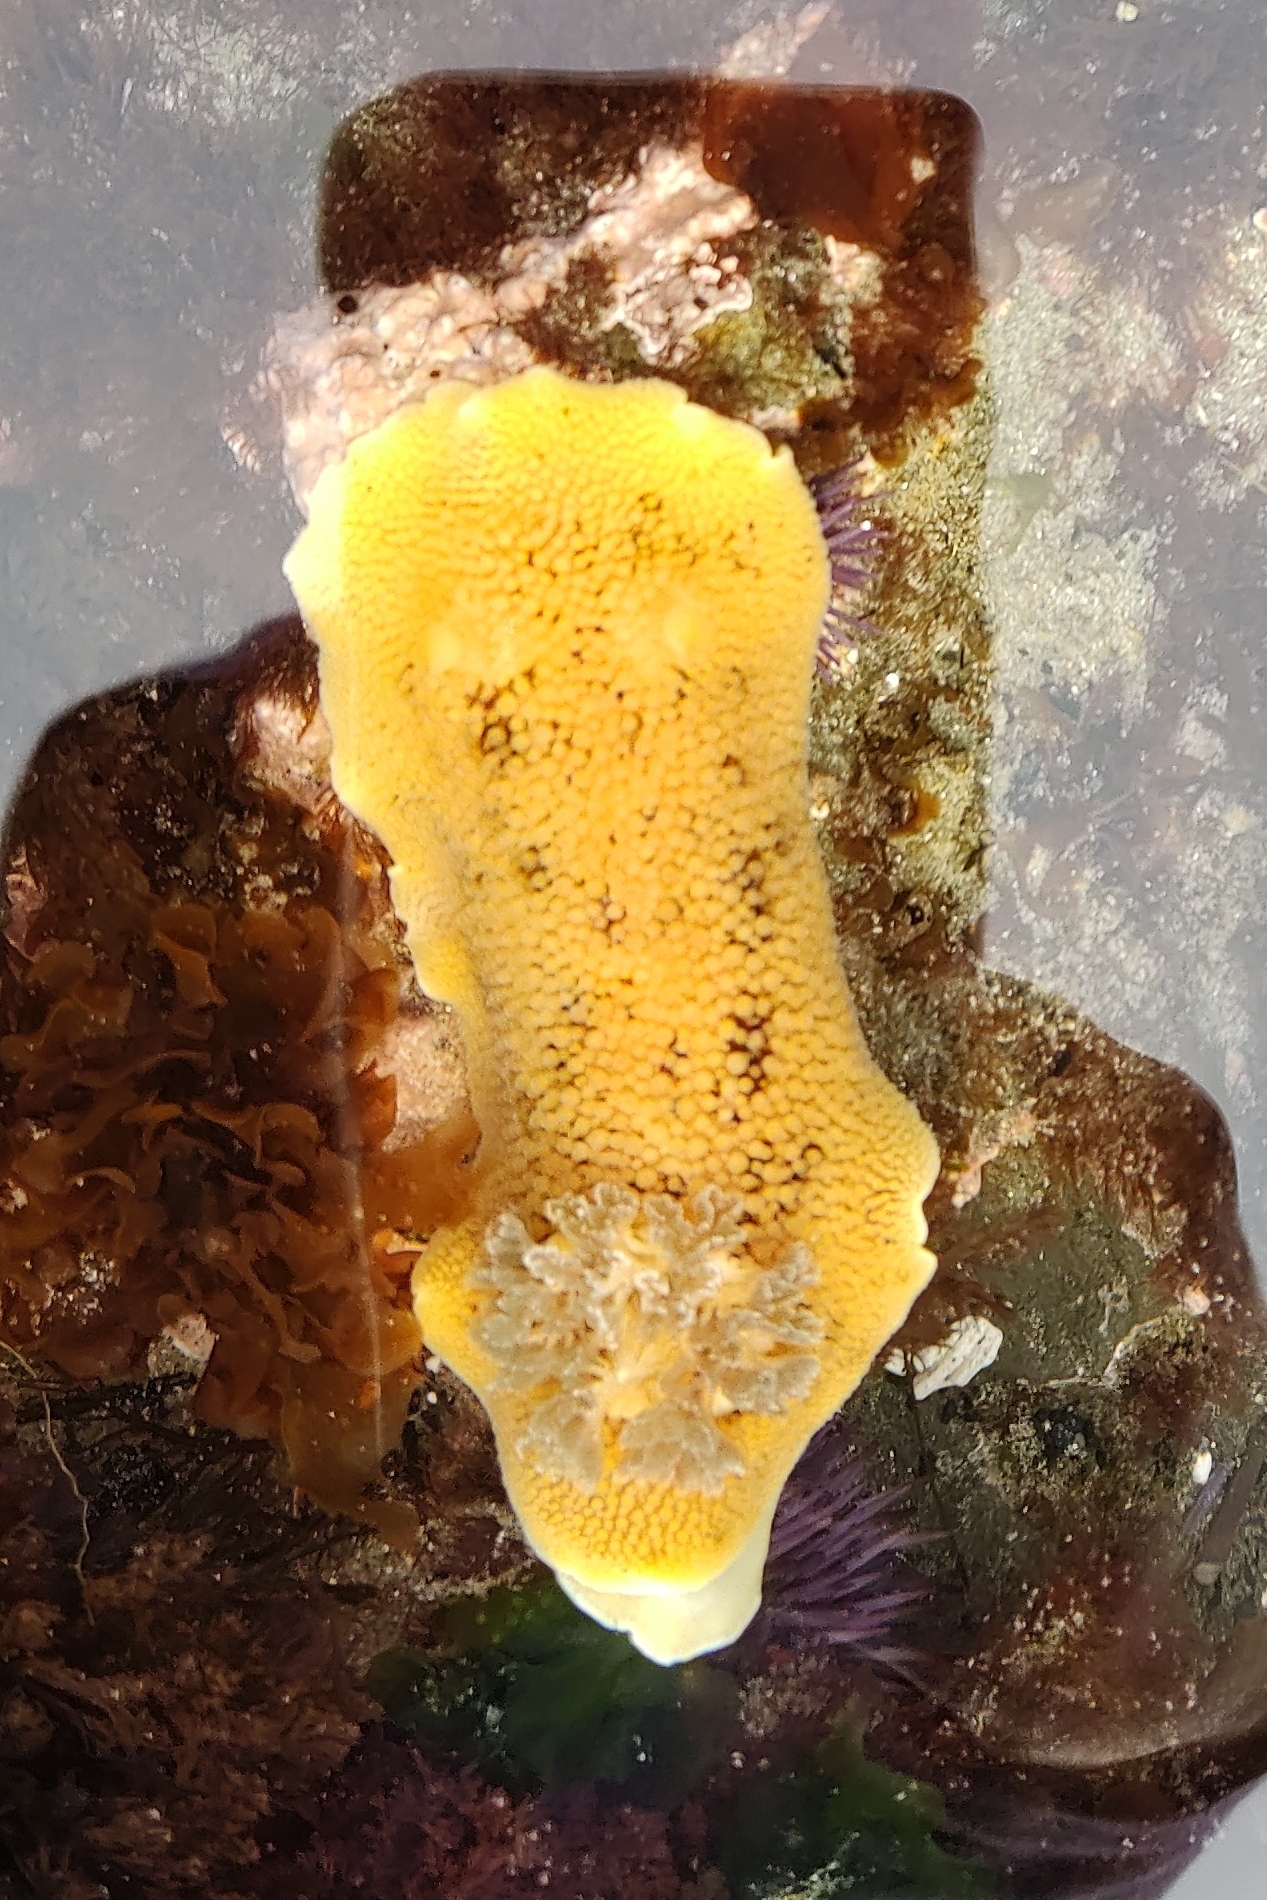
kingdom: Animalia
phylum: Mollusca
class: Gastropoda
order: Nudibranchia
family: Discodorididae
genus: Peltodoris
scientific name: Peltodoris nobilis
